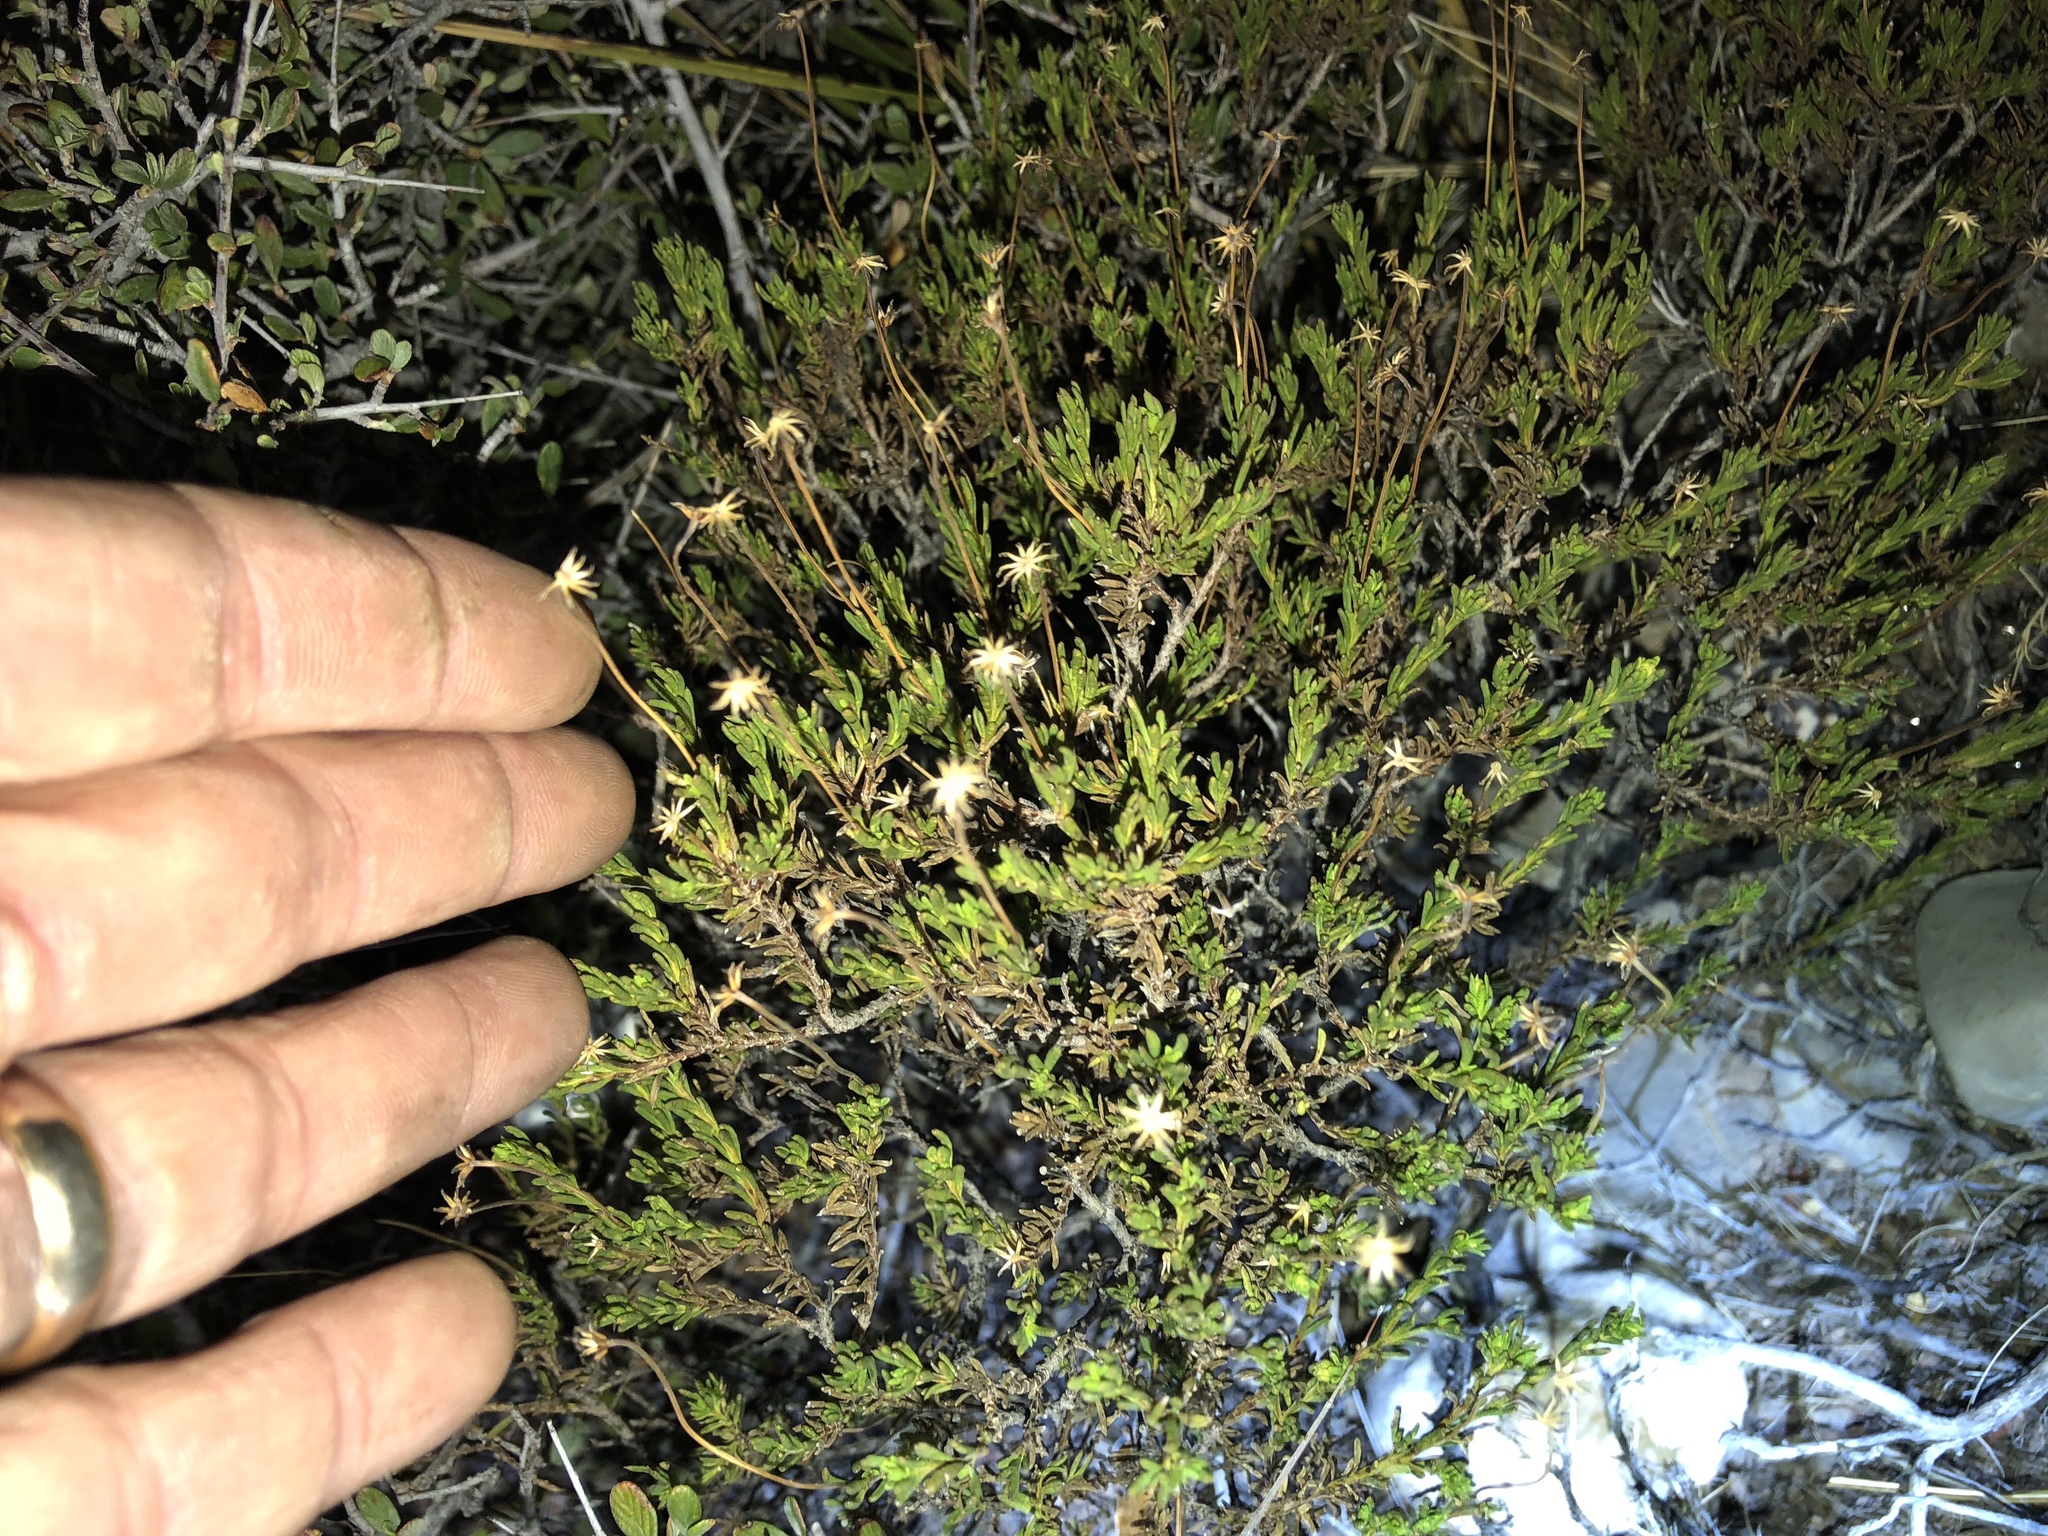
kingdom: Plantae
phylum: Tracheophyta
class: Magnoliopsida
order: Asterales
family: Asteraceae
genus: Chrysactinia
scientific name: Chrysactinia mexicana
